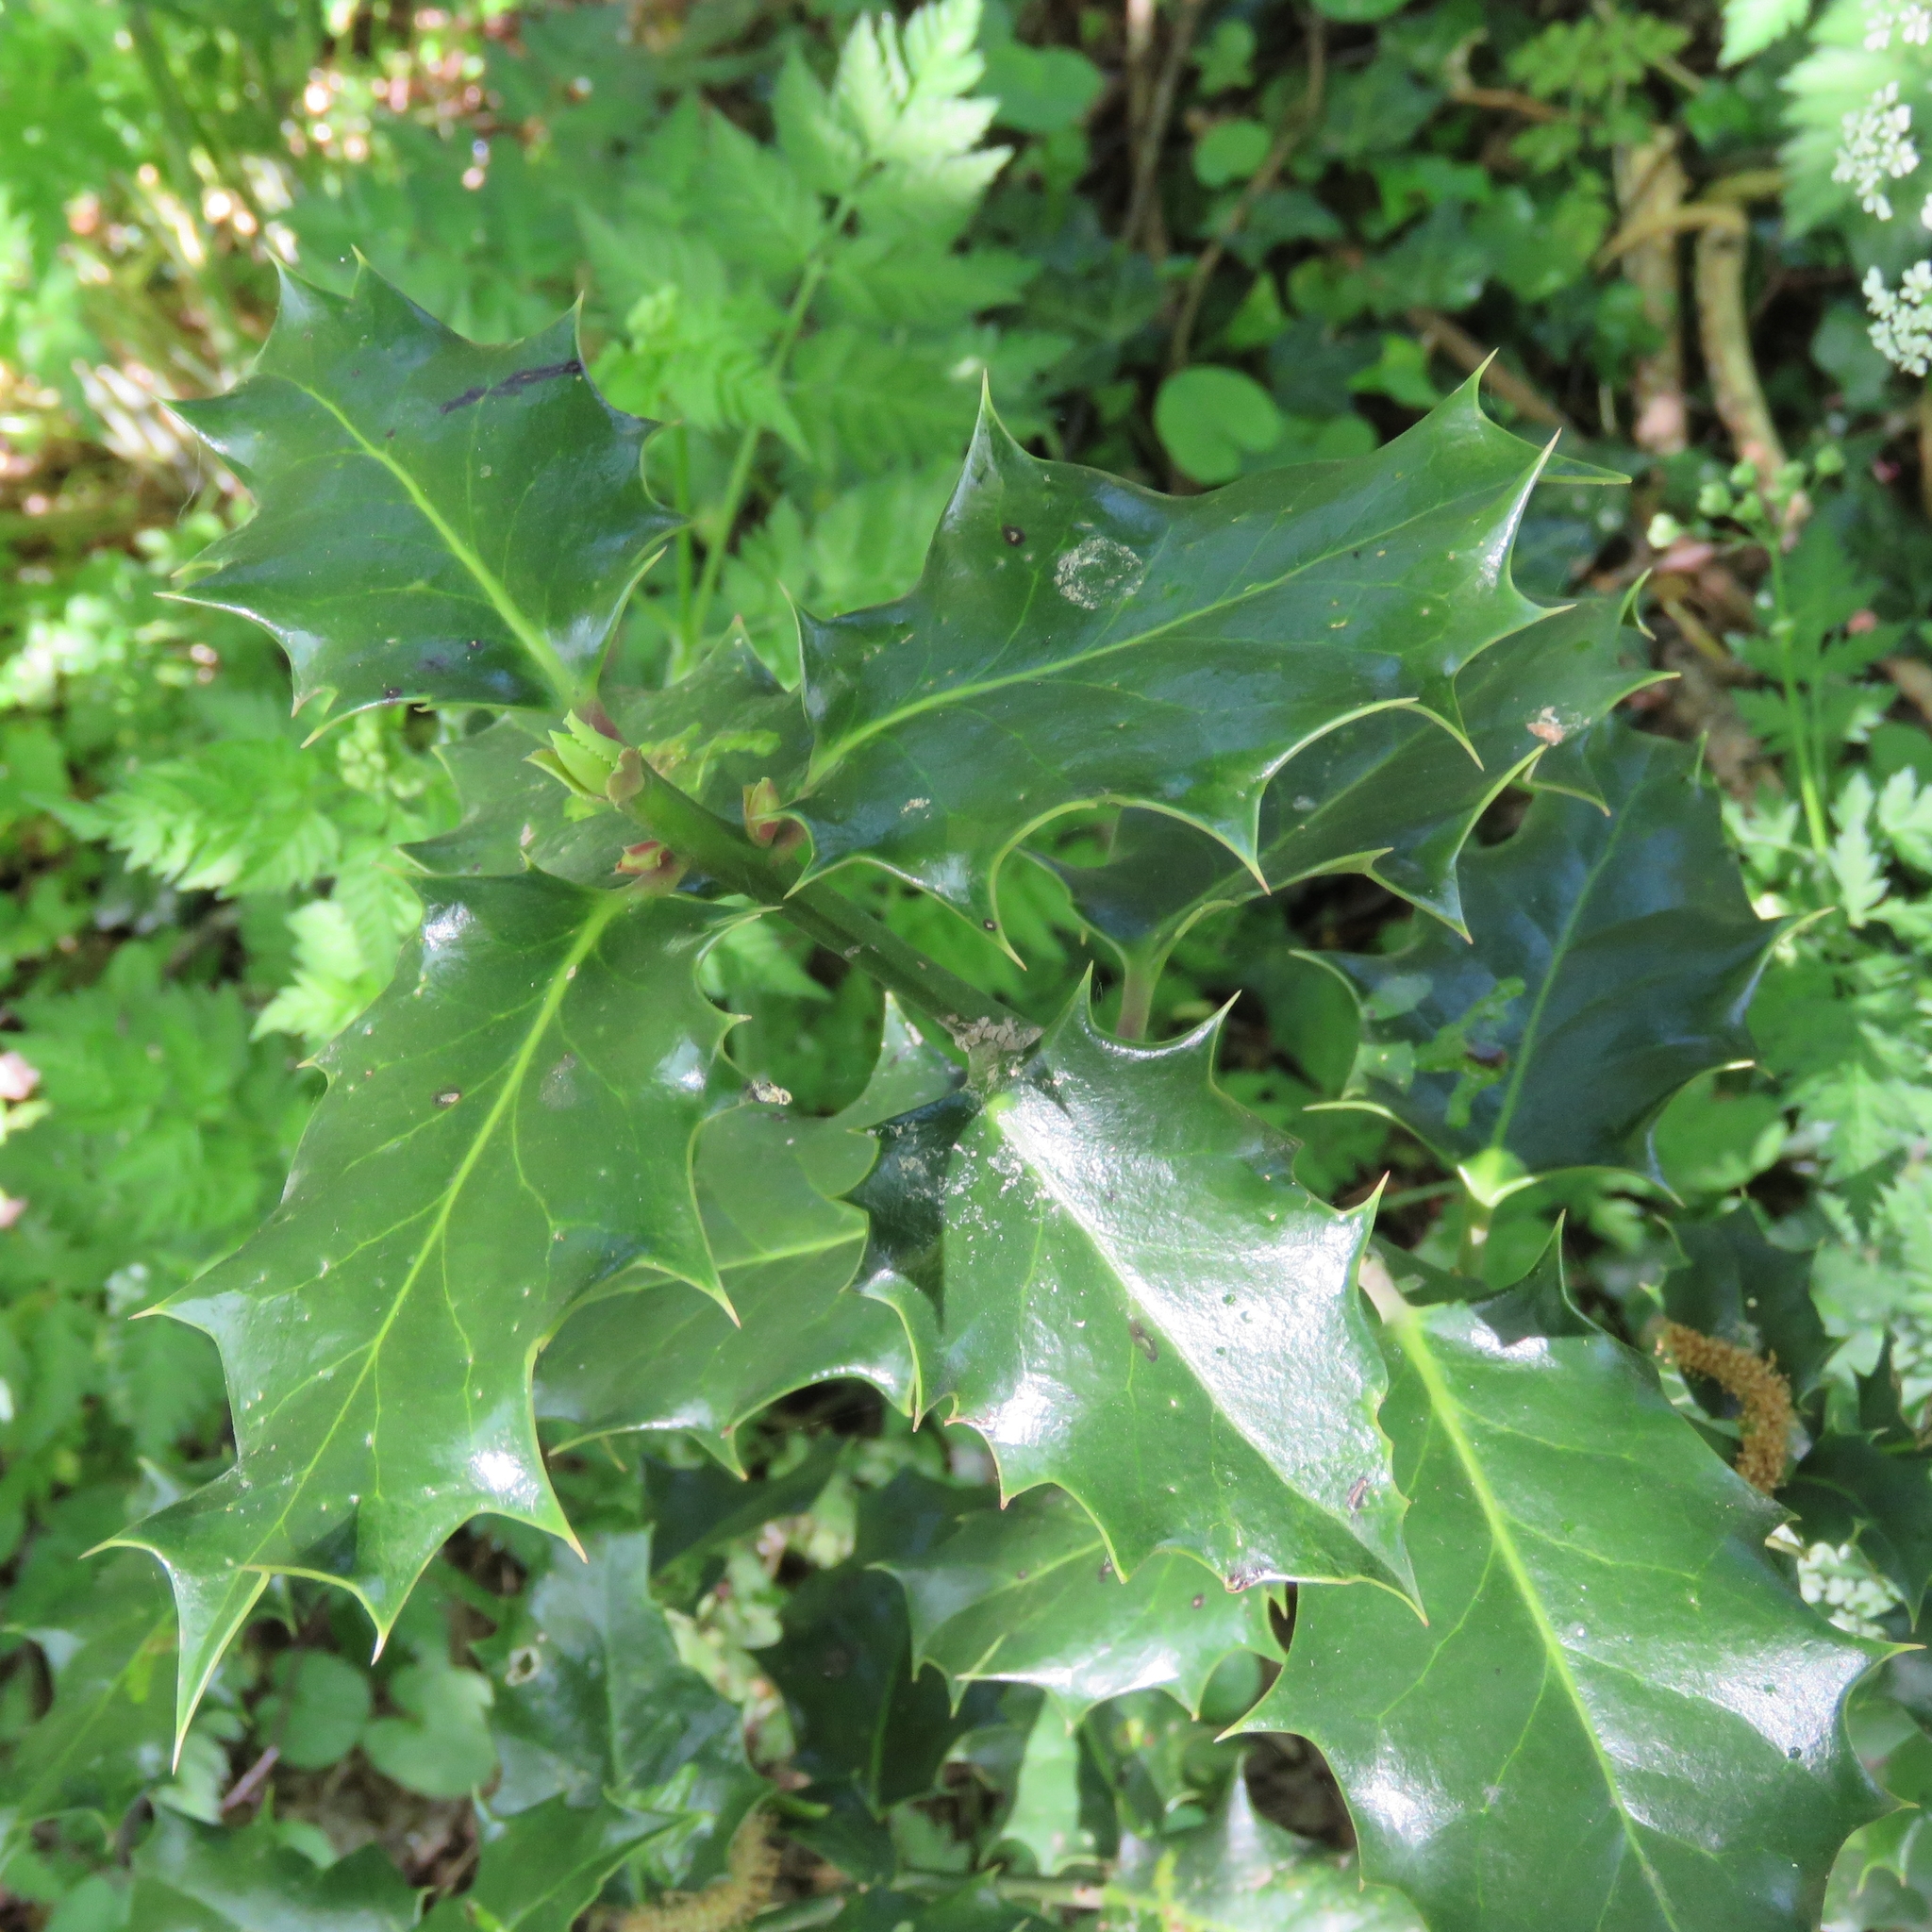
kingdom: Plantae
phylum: Tracheophyta
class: Magnoliopsida
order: Aquifoliales
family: Aquifoliaceae
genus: Ilex
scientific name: Ilex aquifolium
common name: English holly
